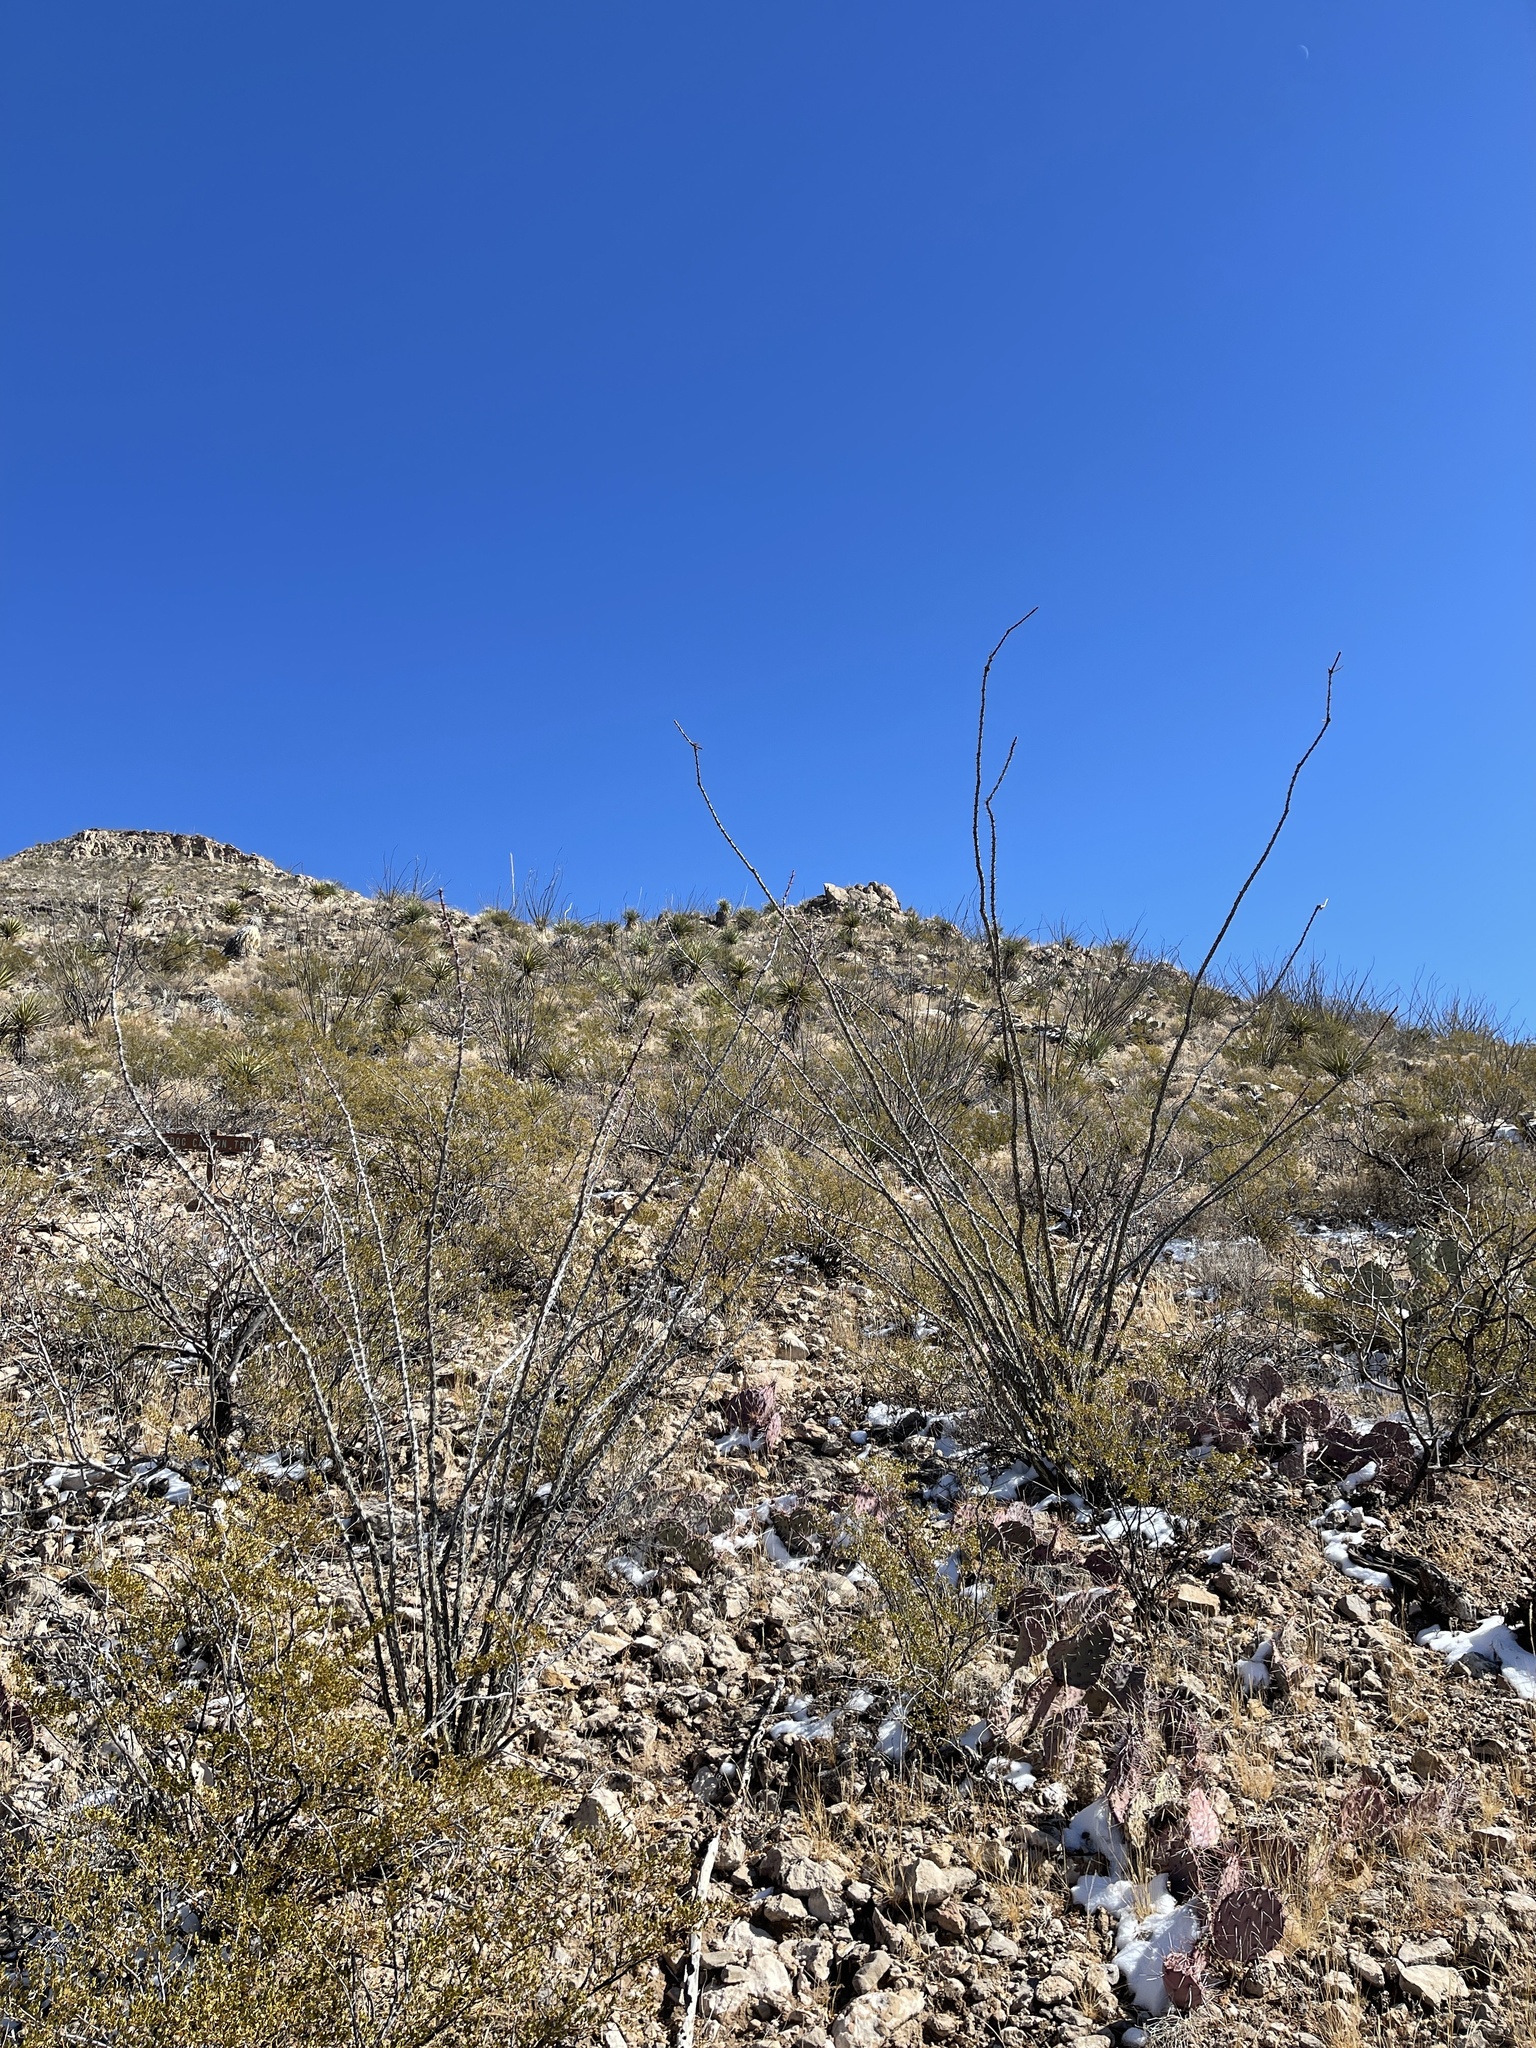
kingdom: Plantae
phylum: Tracheophyta
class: Magnoliopsida
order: Ericales
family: Fouquieriaceae
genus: Fouquieria
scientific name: Fouquieria splendens
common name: Vine-cactus
